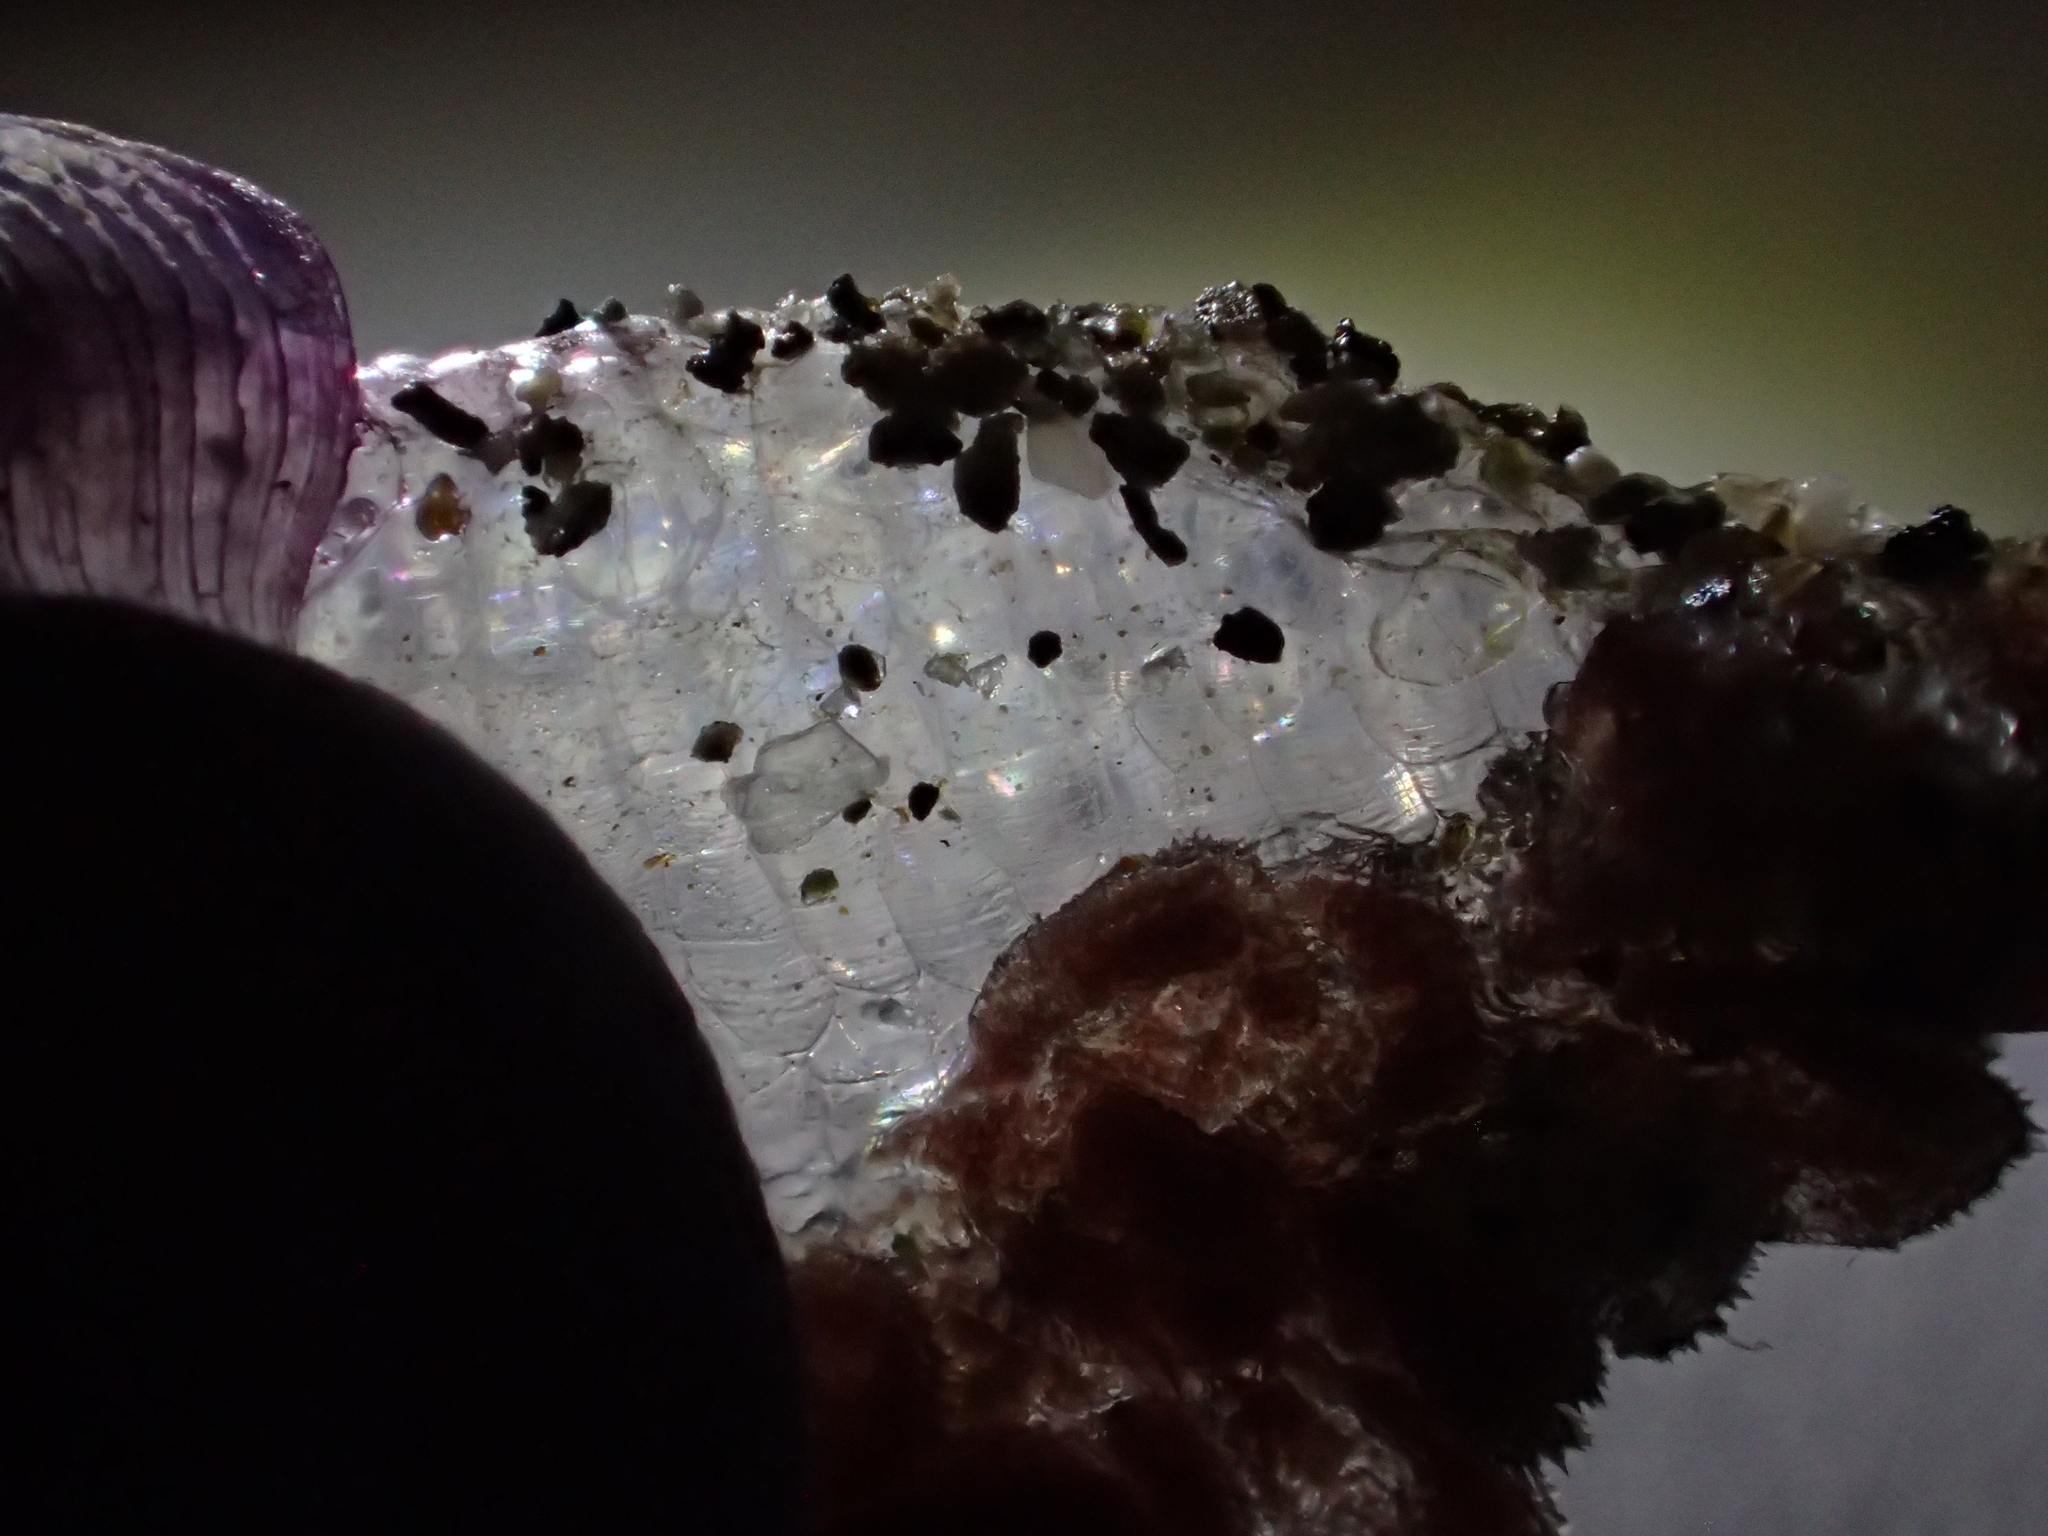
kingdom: Animalia
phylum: Mollusca
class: Gastropoda
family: Epitoniidae
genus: Janthina
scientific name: Janthina exigua
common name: Dwarf janthina
